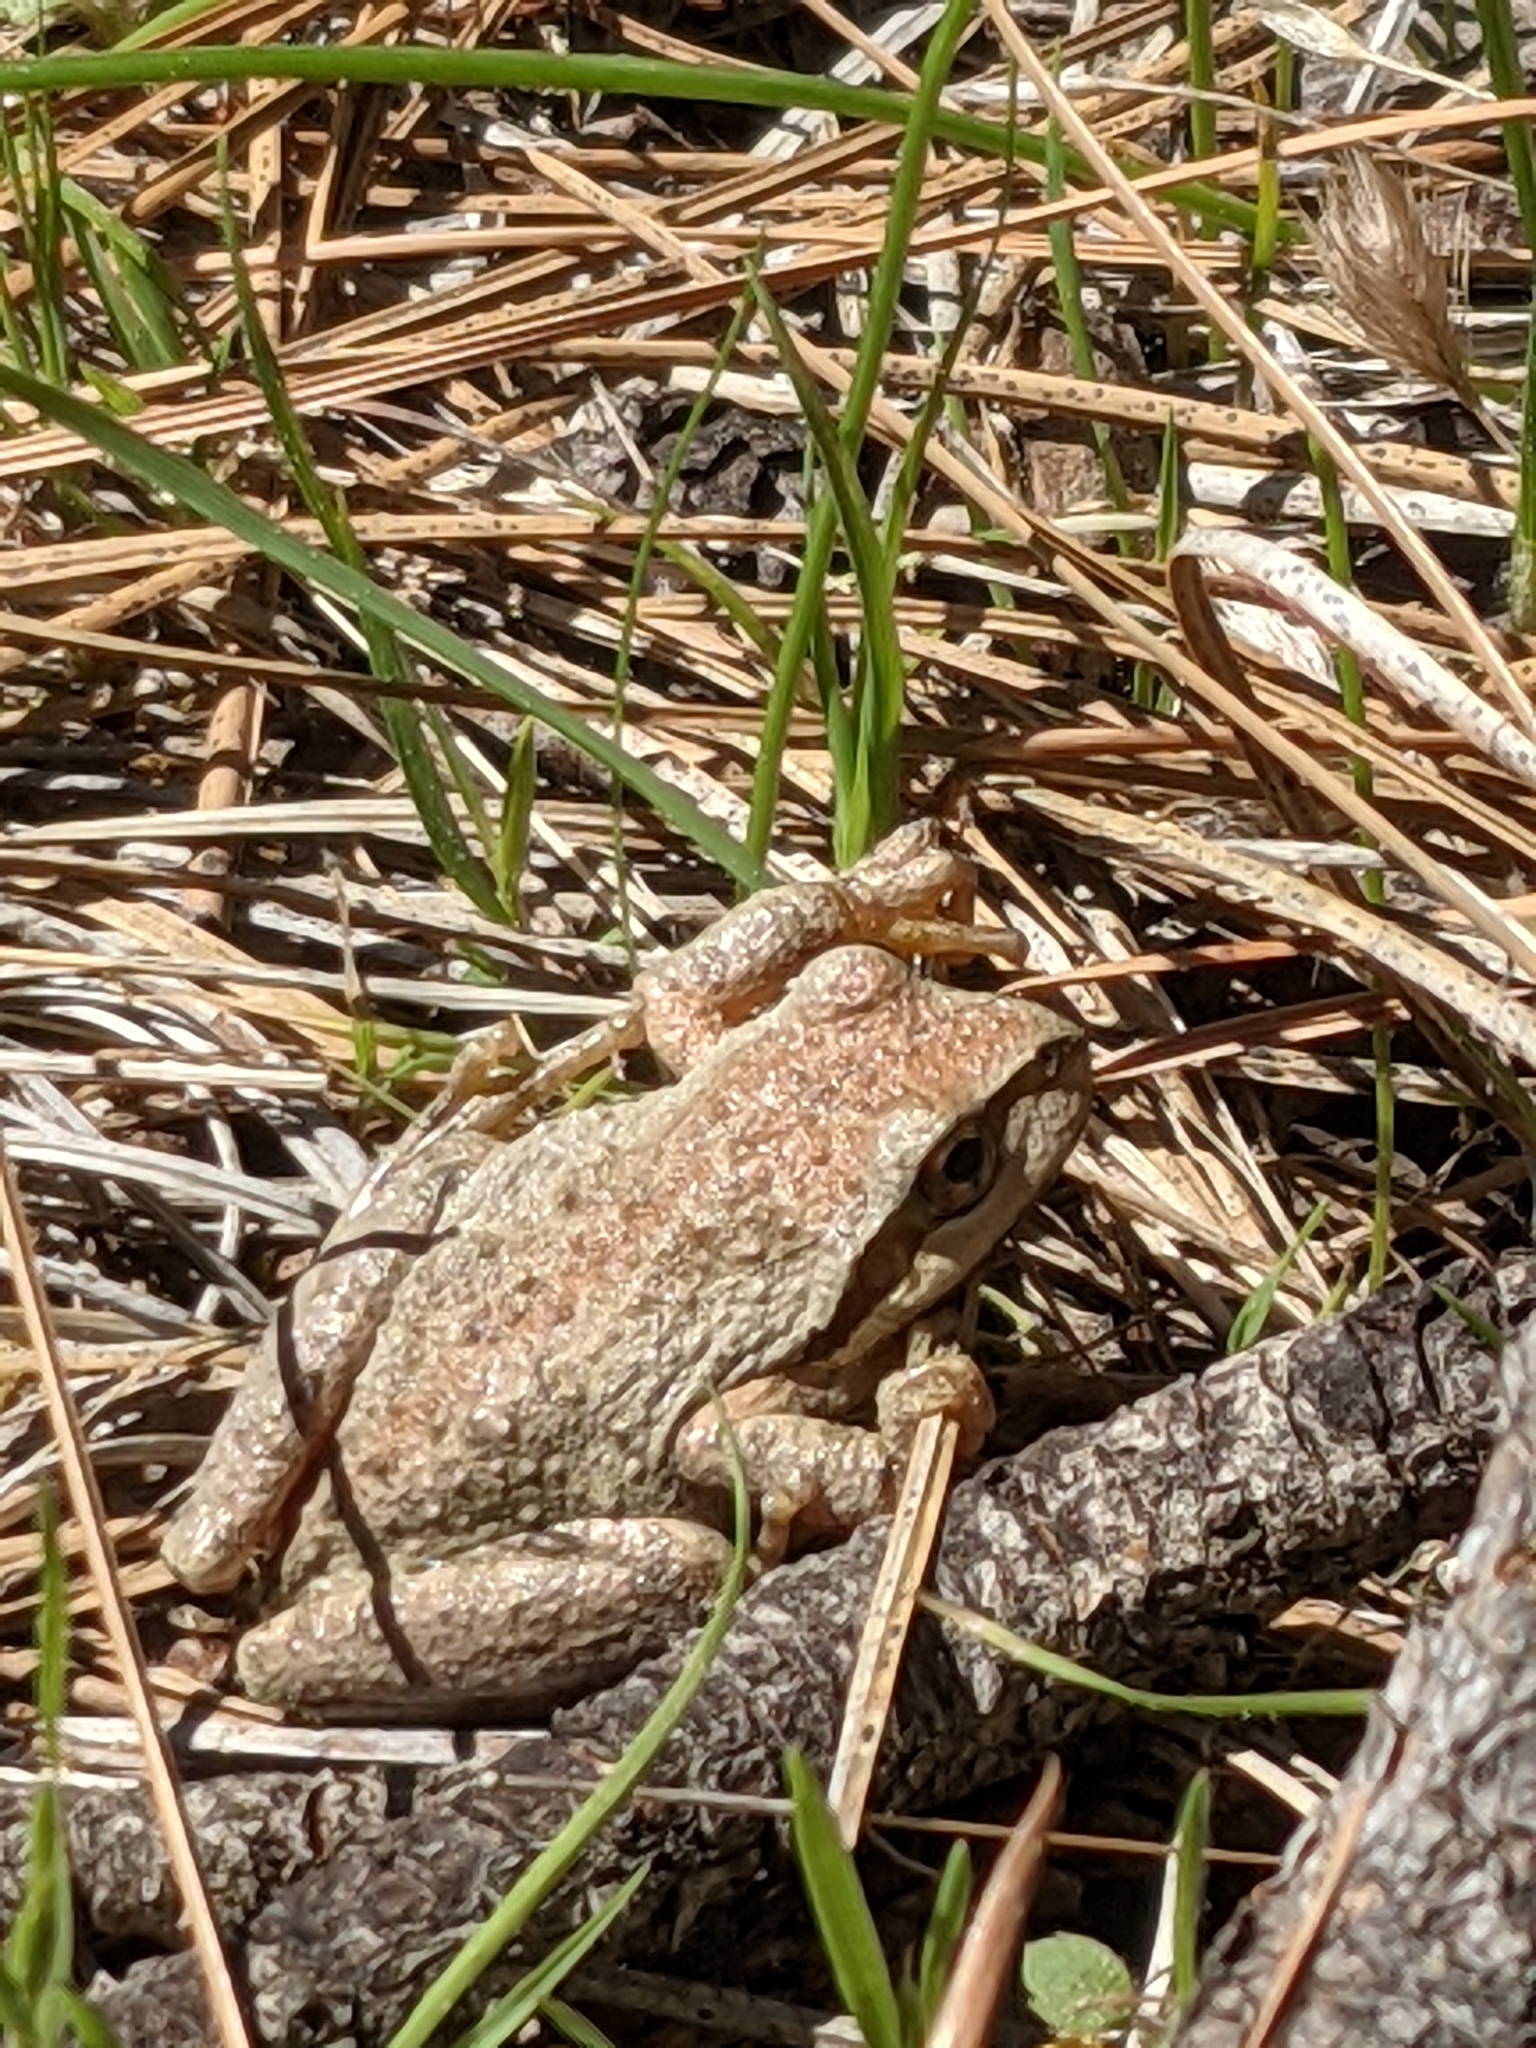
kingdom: Animalia
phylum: Chordata
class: Amphibia
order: Anura
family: Hylidae
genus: Pseudacris
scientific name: Pseudacris regilla
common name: Pacific chorus frog
